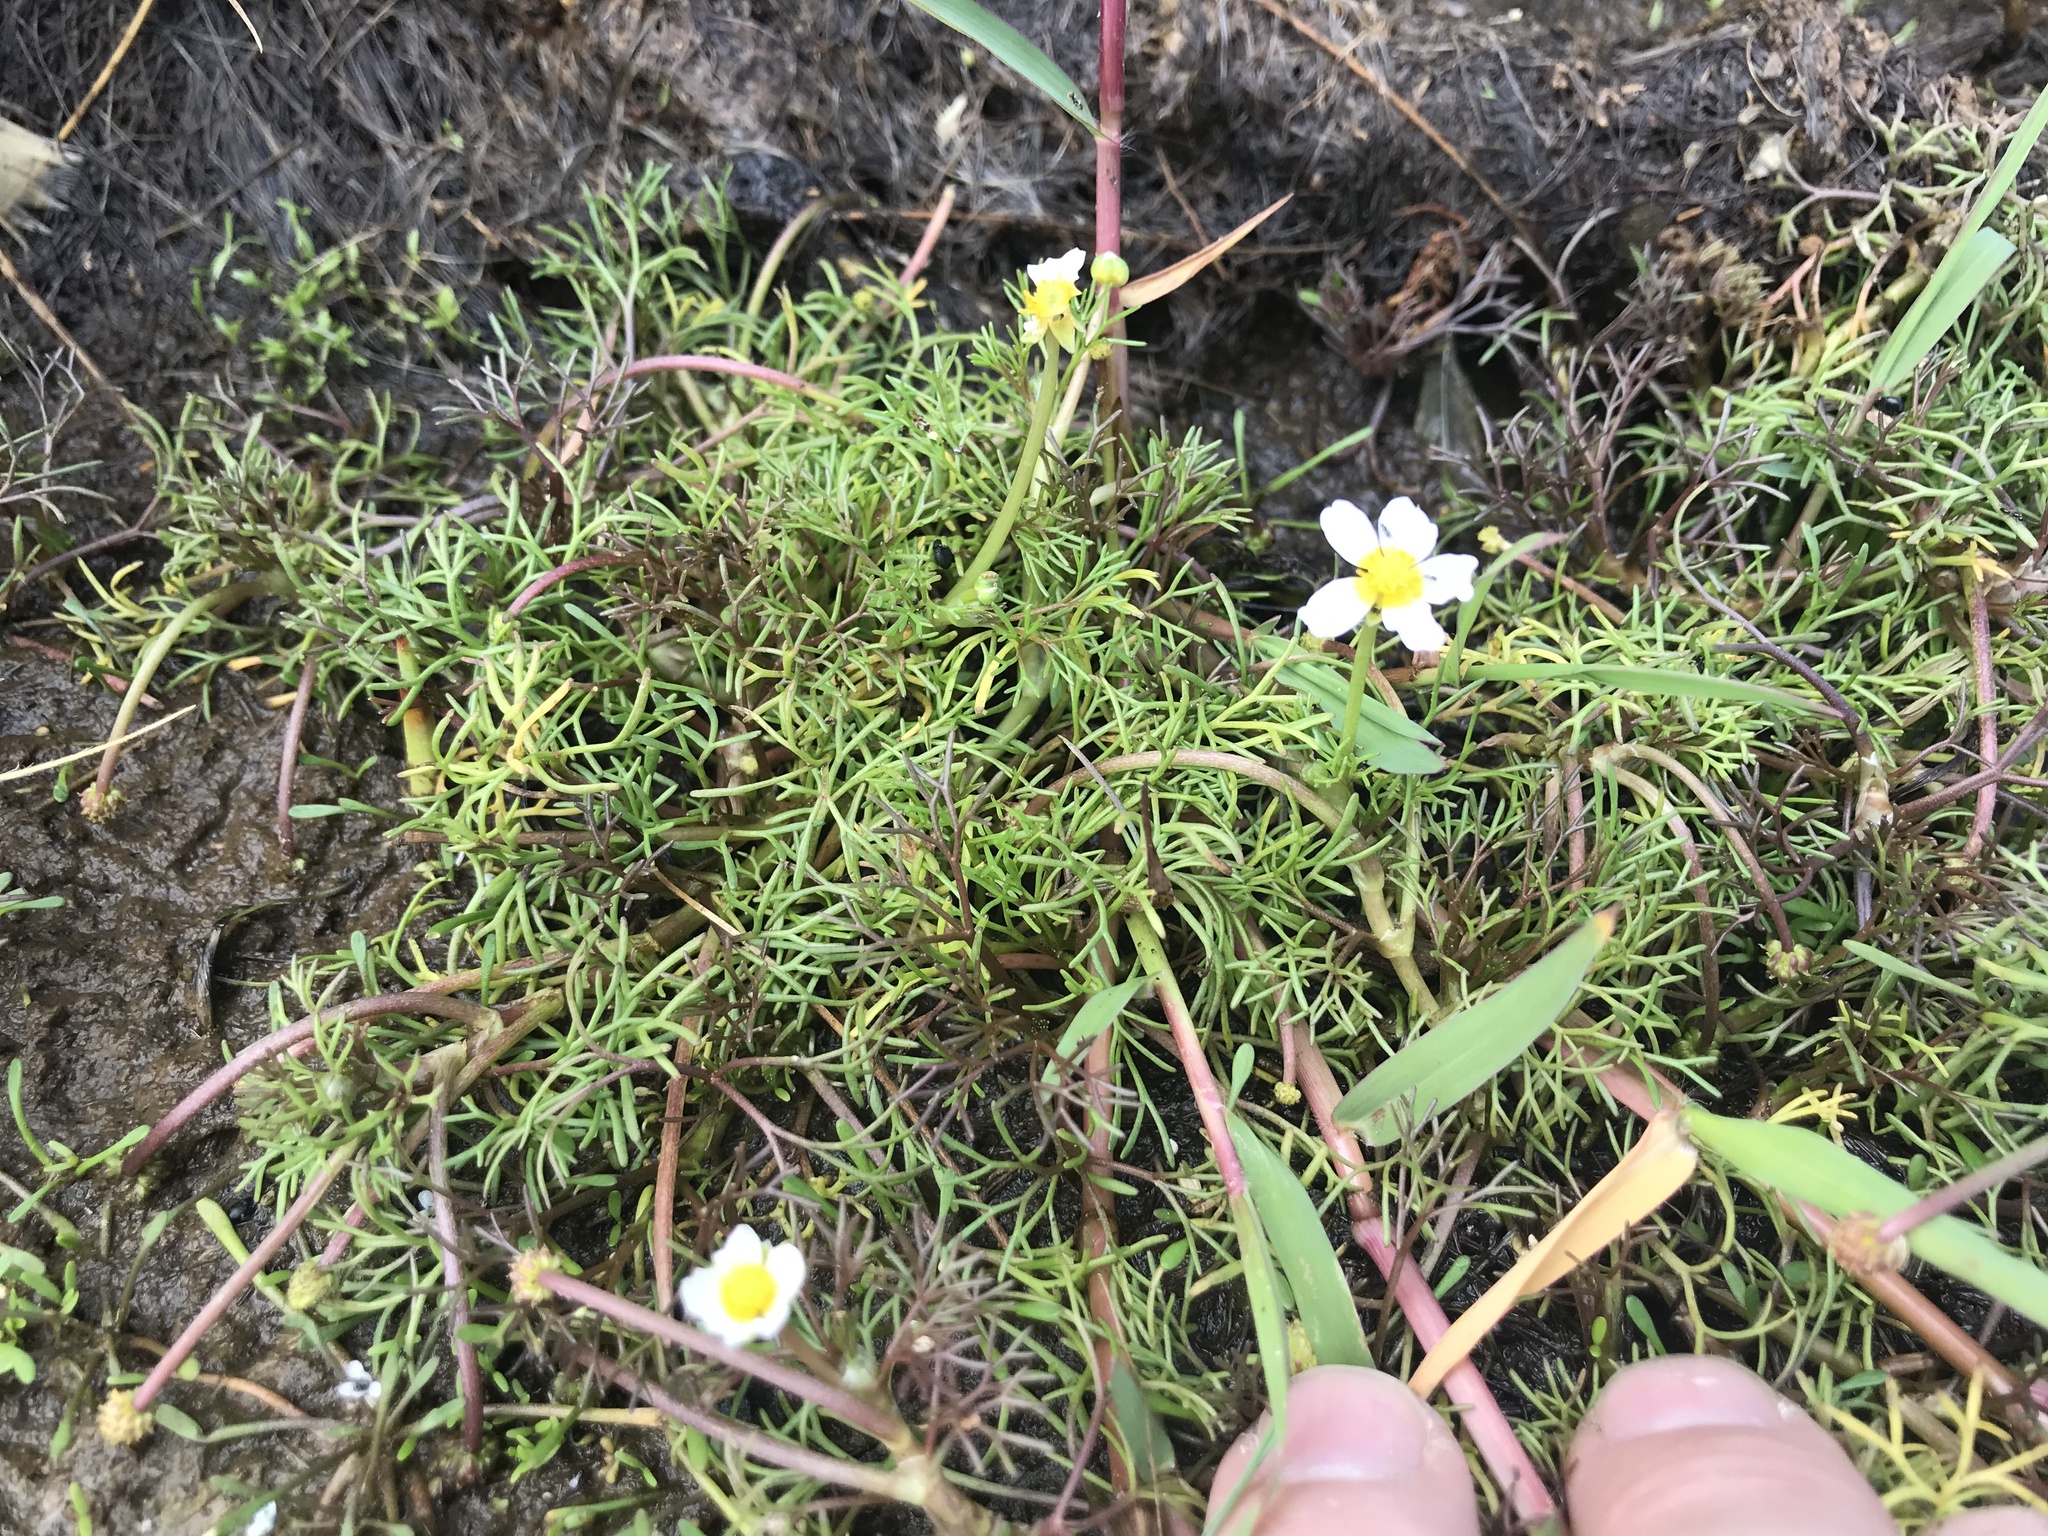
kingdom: Plantae
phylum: Tracheophyta
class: Magnoliopsida
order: Ranunculales
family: Ranunculaceae
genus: Ranunculus
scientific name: Ranunculus trichophyllus
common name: Thread-leaved water-crowfoot
